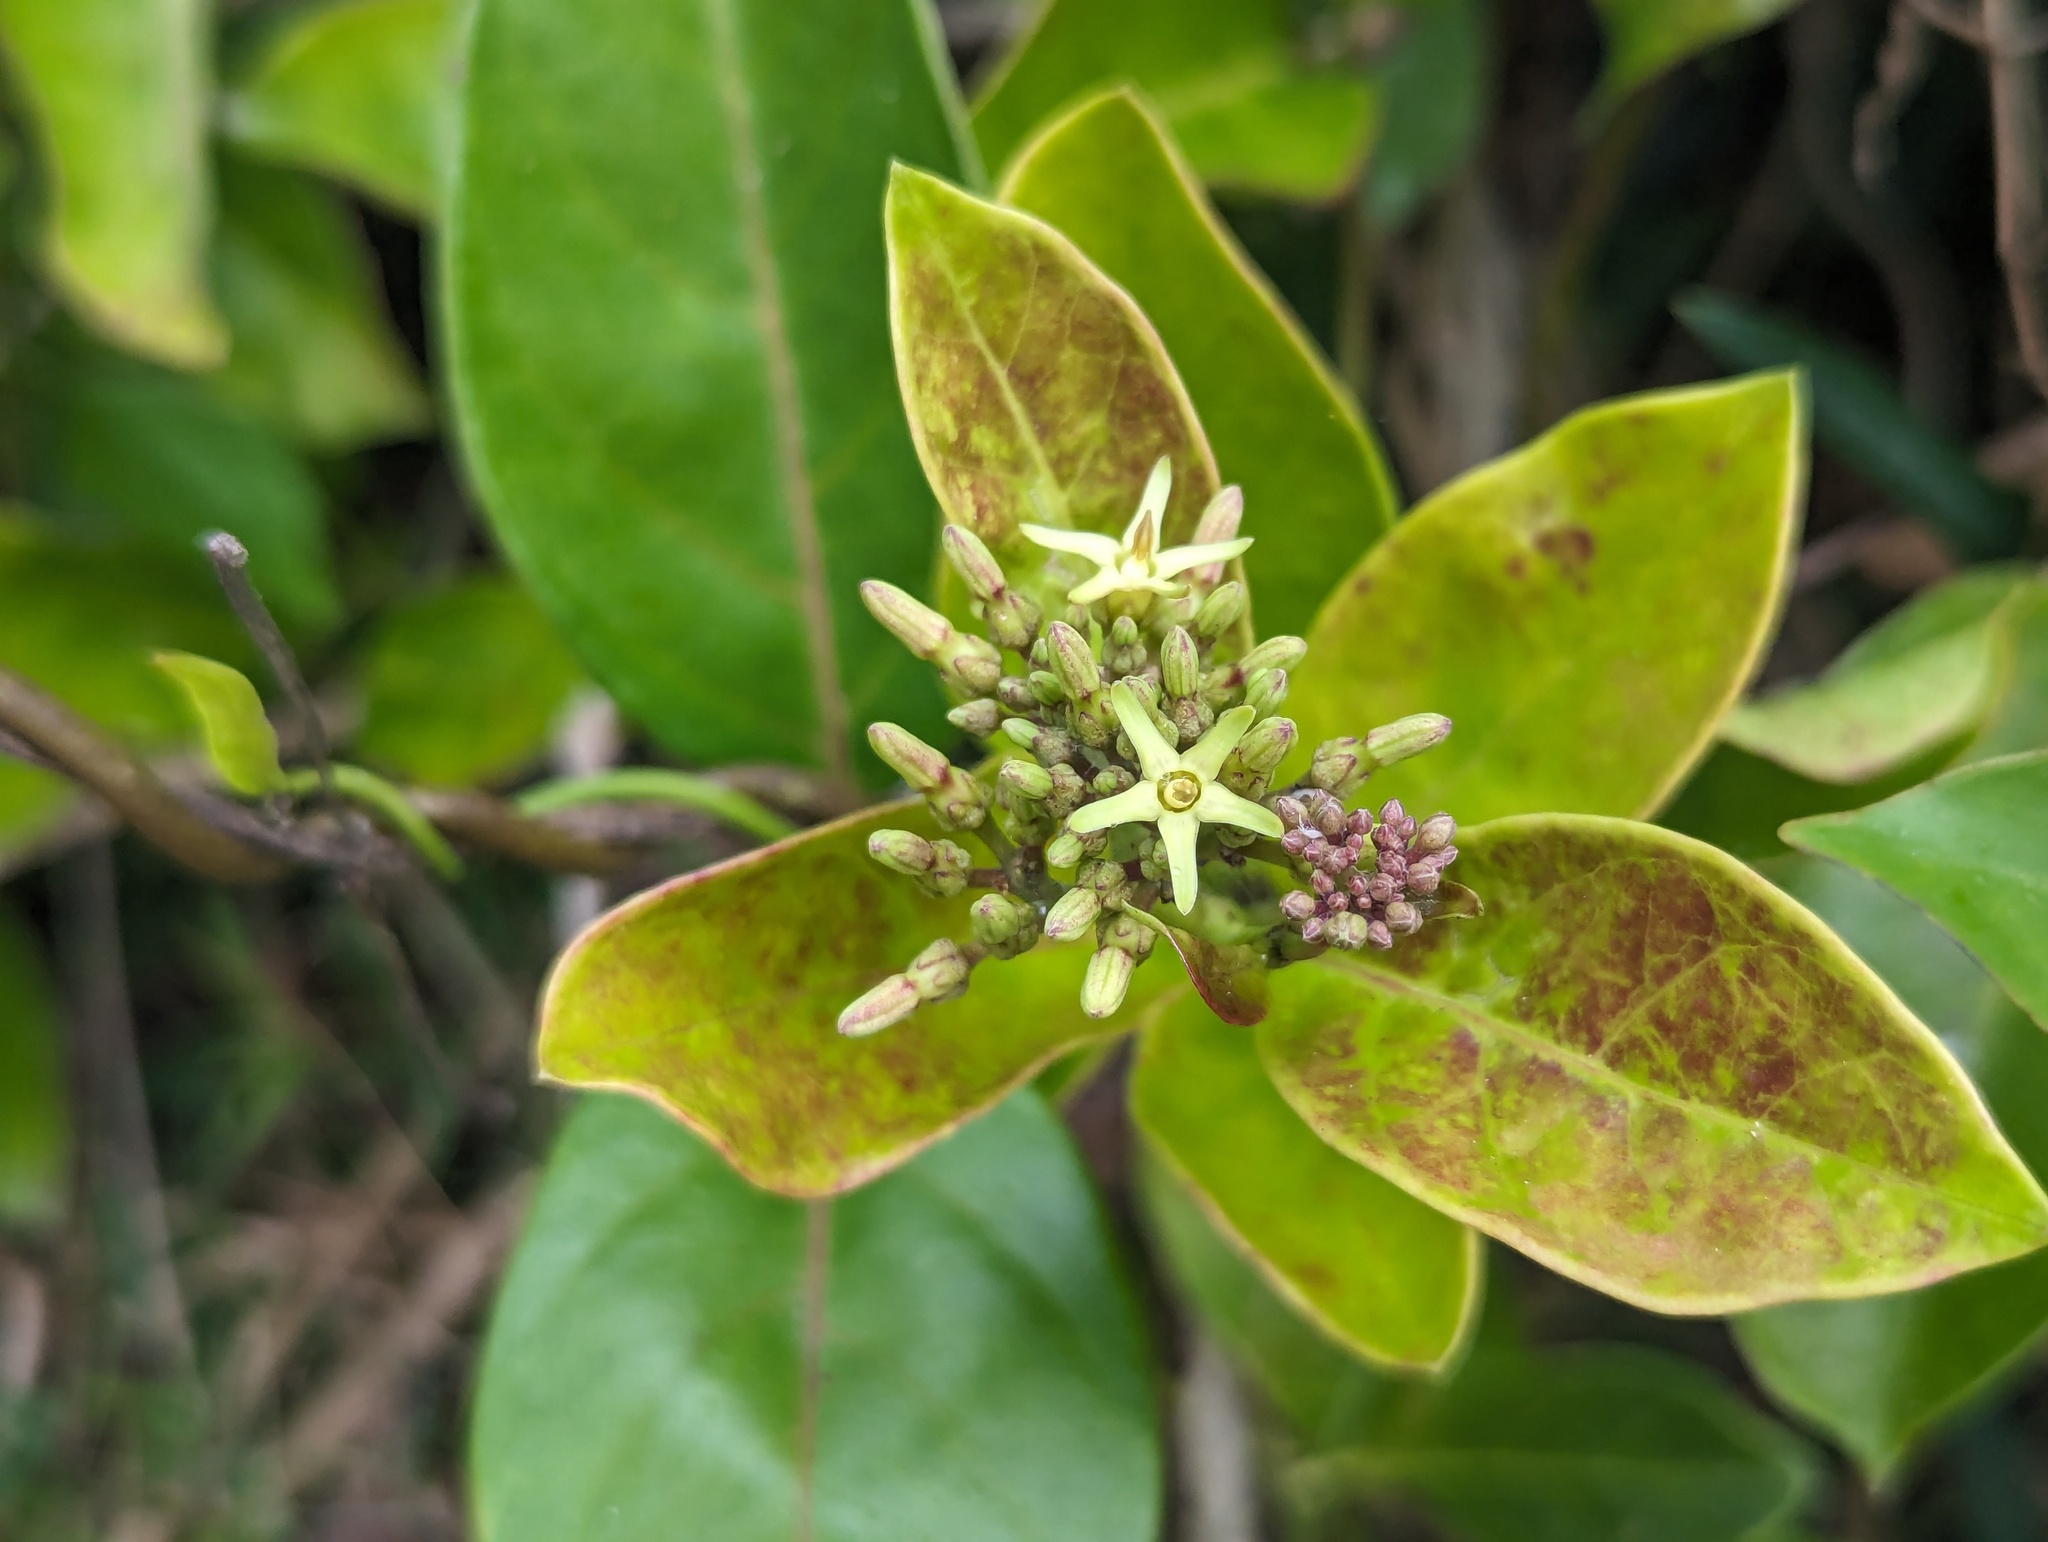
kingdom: Plantae
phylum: Tracheophyta
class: Magnoliopsida
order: Gentianales
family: Apocynaceae
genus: Parsonsia
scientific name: Parsonsia alboflavescens
